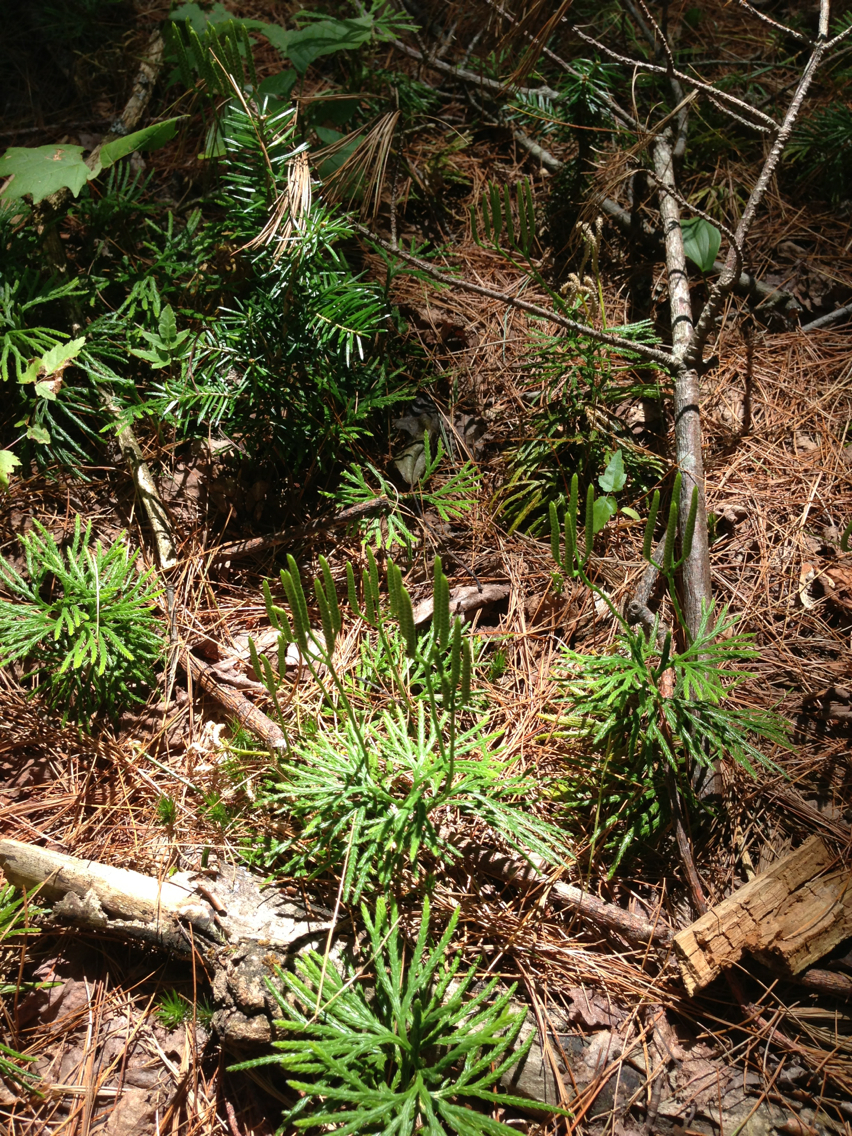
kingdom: Plantae
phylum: Tracheophyta
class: Lycopodiopsida
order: Lycopodiales
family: Lycopodiaceae
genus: Diphasiastrum
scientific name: Diphasiastrum digitatum
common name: Southern running-pine
